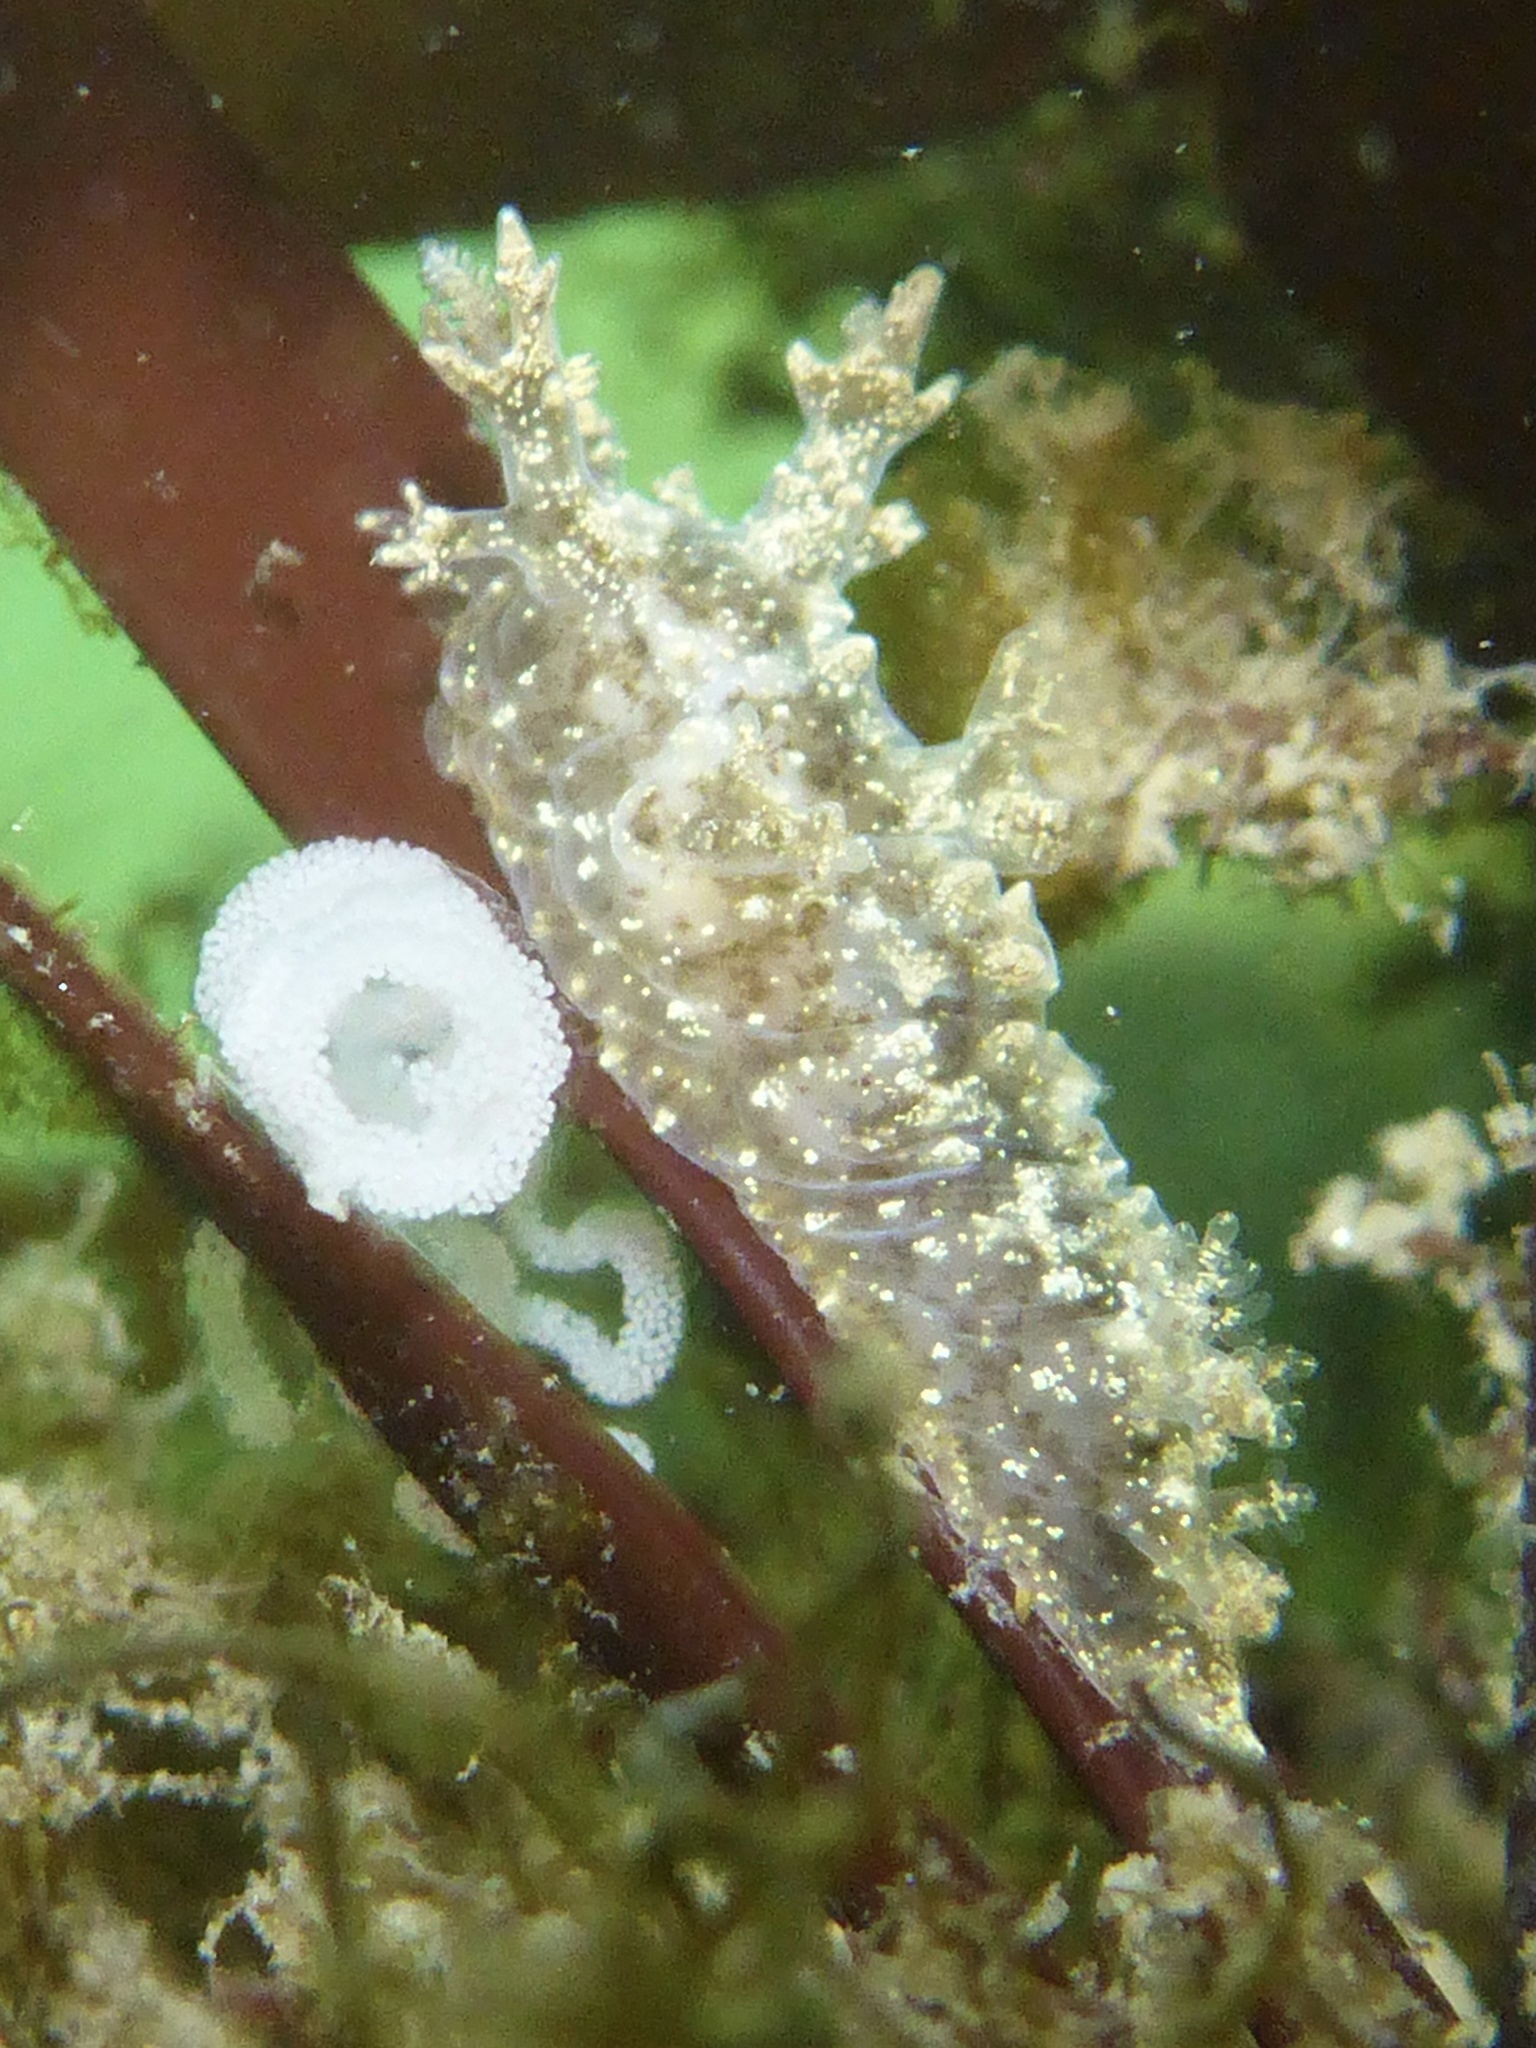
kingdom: Animalia
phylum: Mollusca
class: Gastropoda
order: Nudibranchia
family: Dendronotidae
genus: Dendronotus
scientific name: Dendronotus venustus
